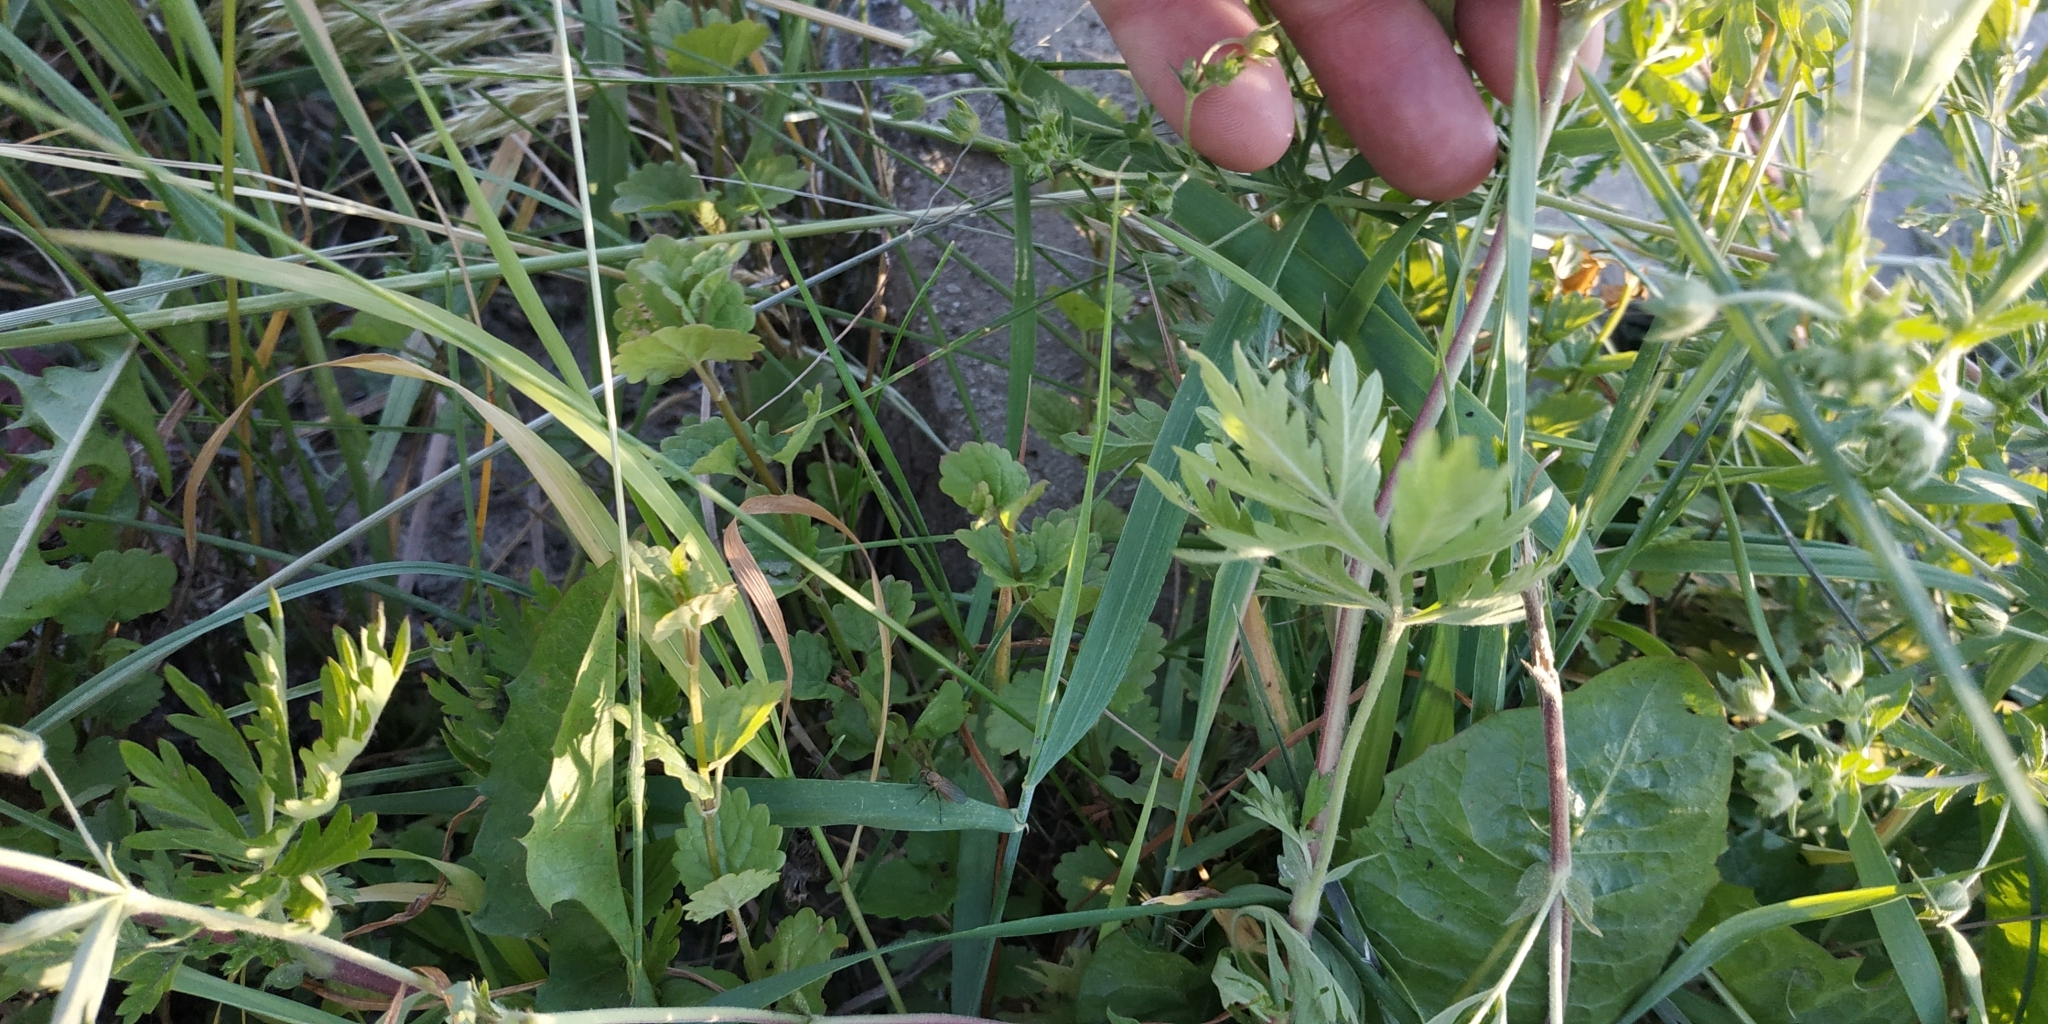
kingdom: Plantae
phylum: Tracheophyta
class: Magnoliopsida
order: Rosales
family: Rosaceae
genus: Potentilla
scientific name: Potentilla supina
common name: Prostrate cinquefoil
